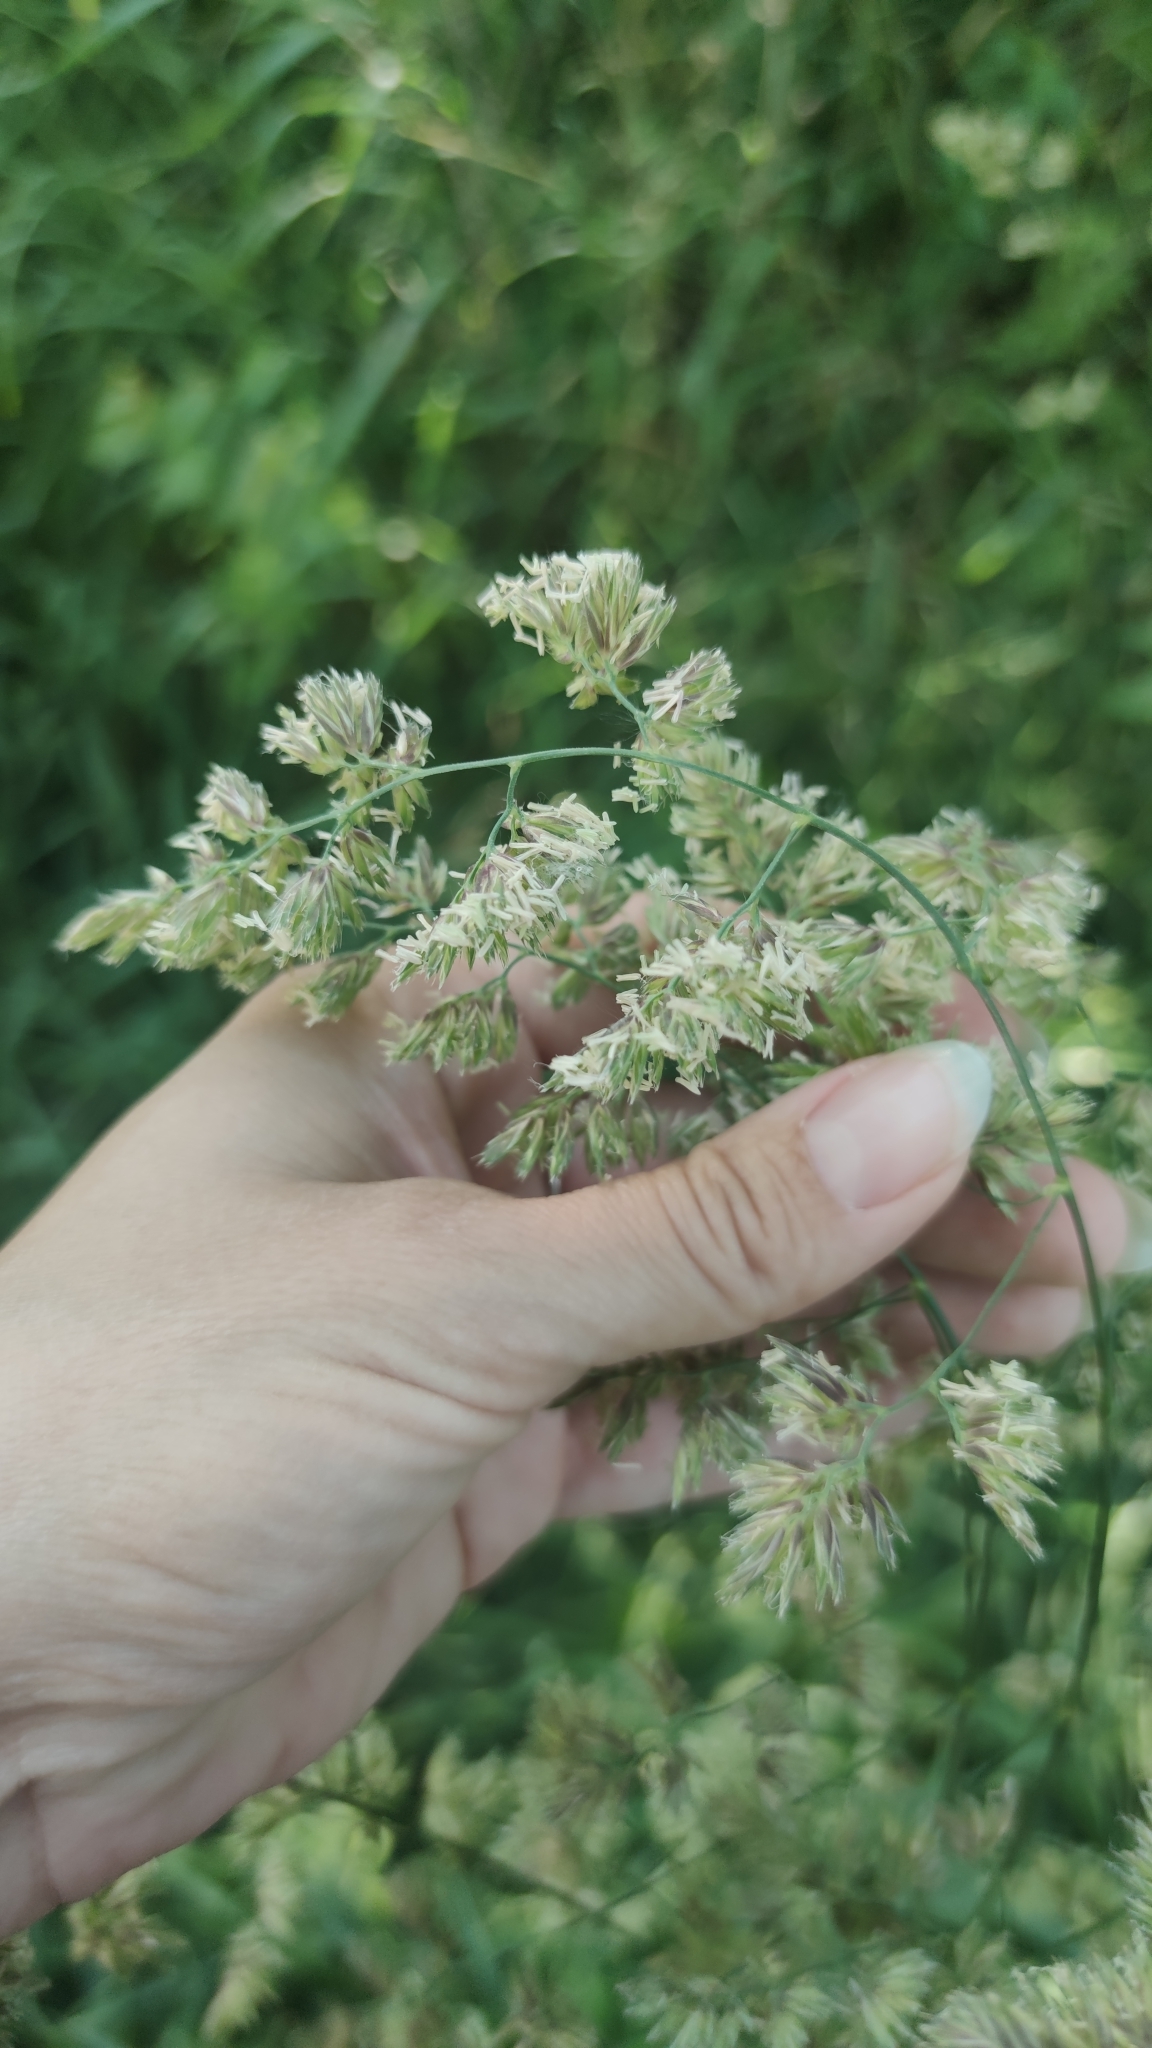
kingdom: Plantae
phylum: Tracheophyta
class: Liliopsida
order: Poales
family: Poaceae
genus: Dactylis
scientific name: Dactylis glomerata
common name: Orchardgrass
